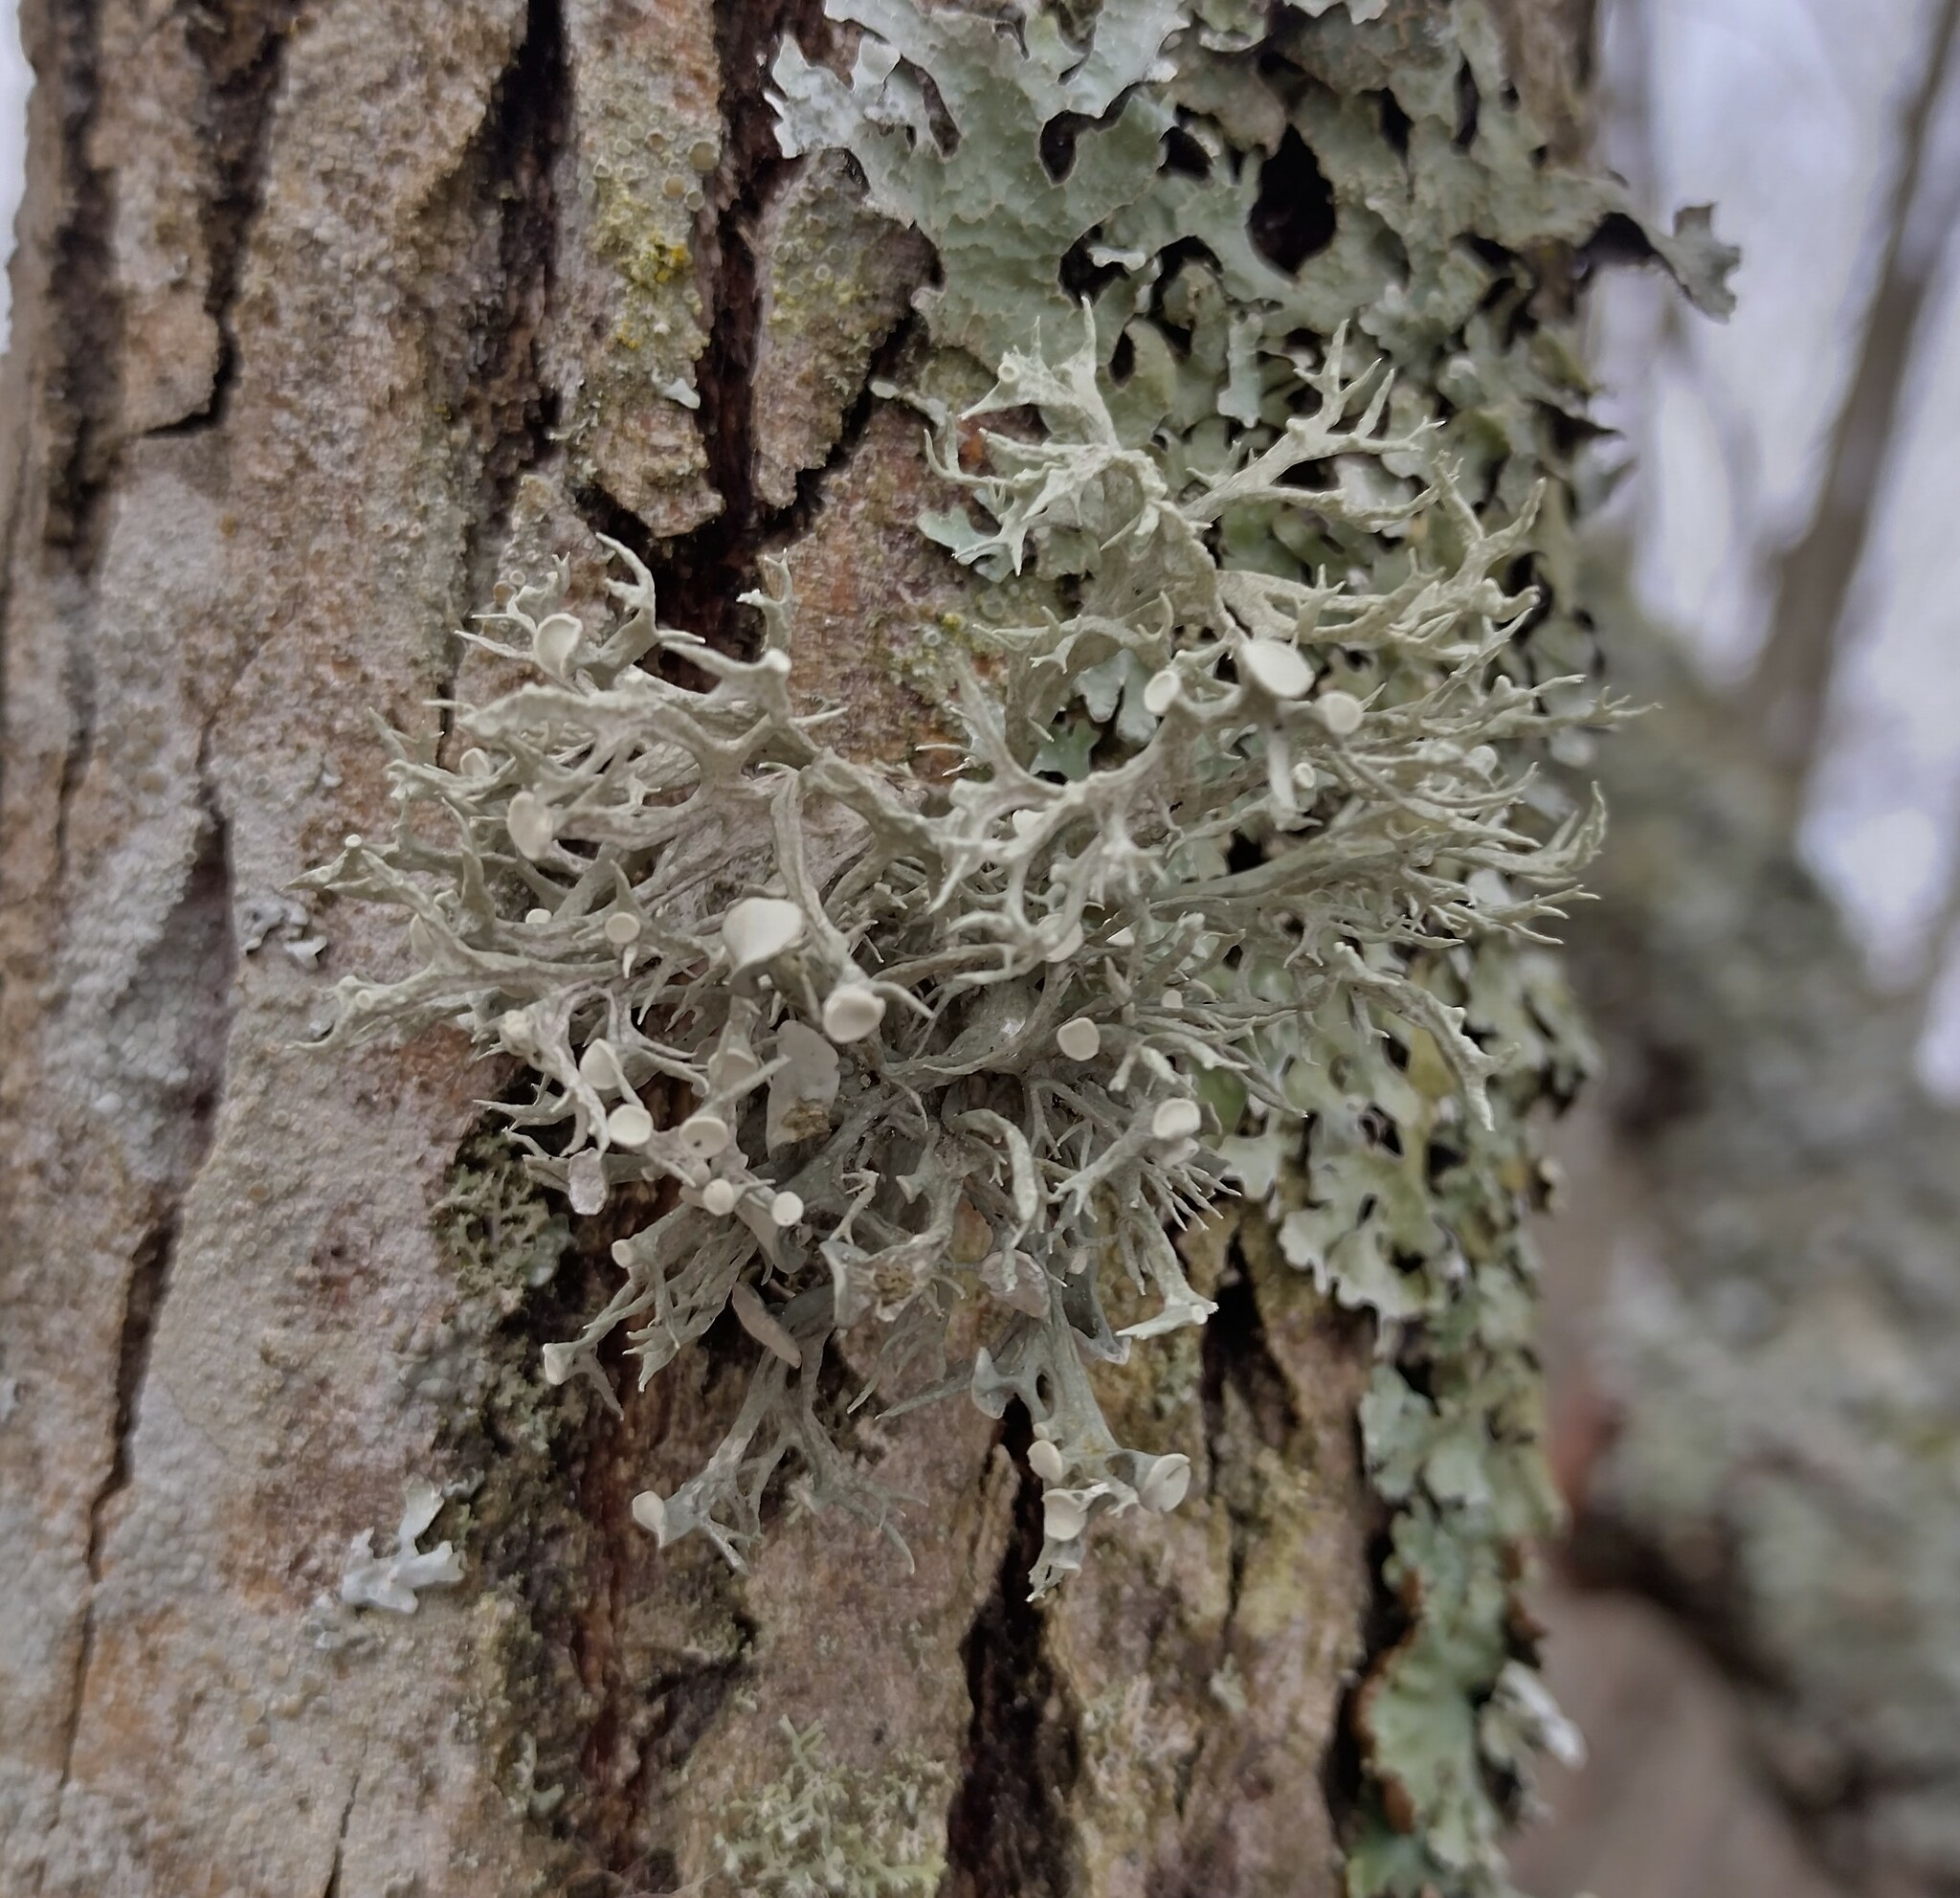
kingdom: Fungi
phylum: Ascomycota
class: Lecanoromycetes
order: Lecanorales
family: Ramalinaceae
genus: Ramalina
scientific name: Ramalina fastigiata
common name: Dotted ribbon lichen
